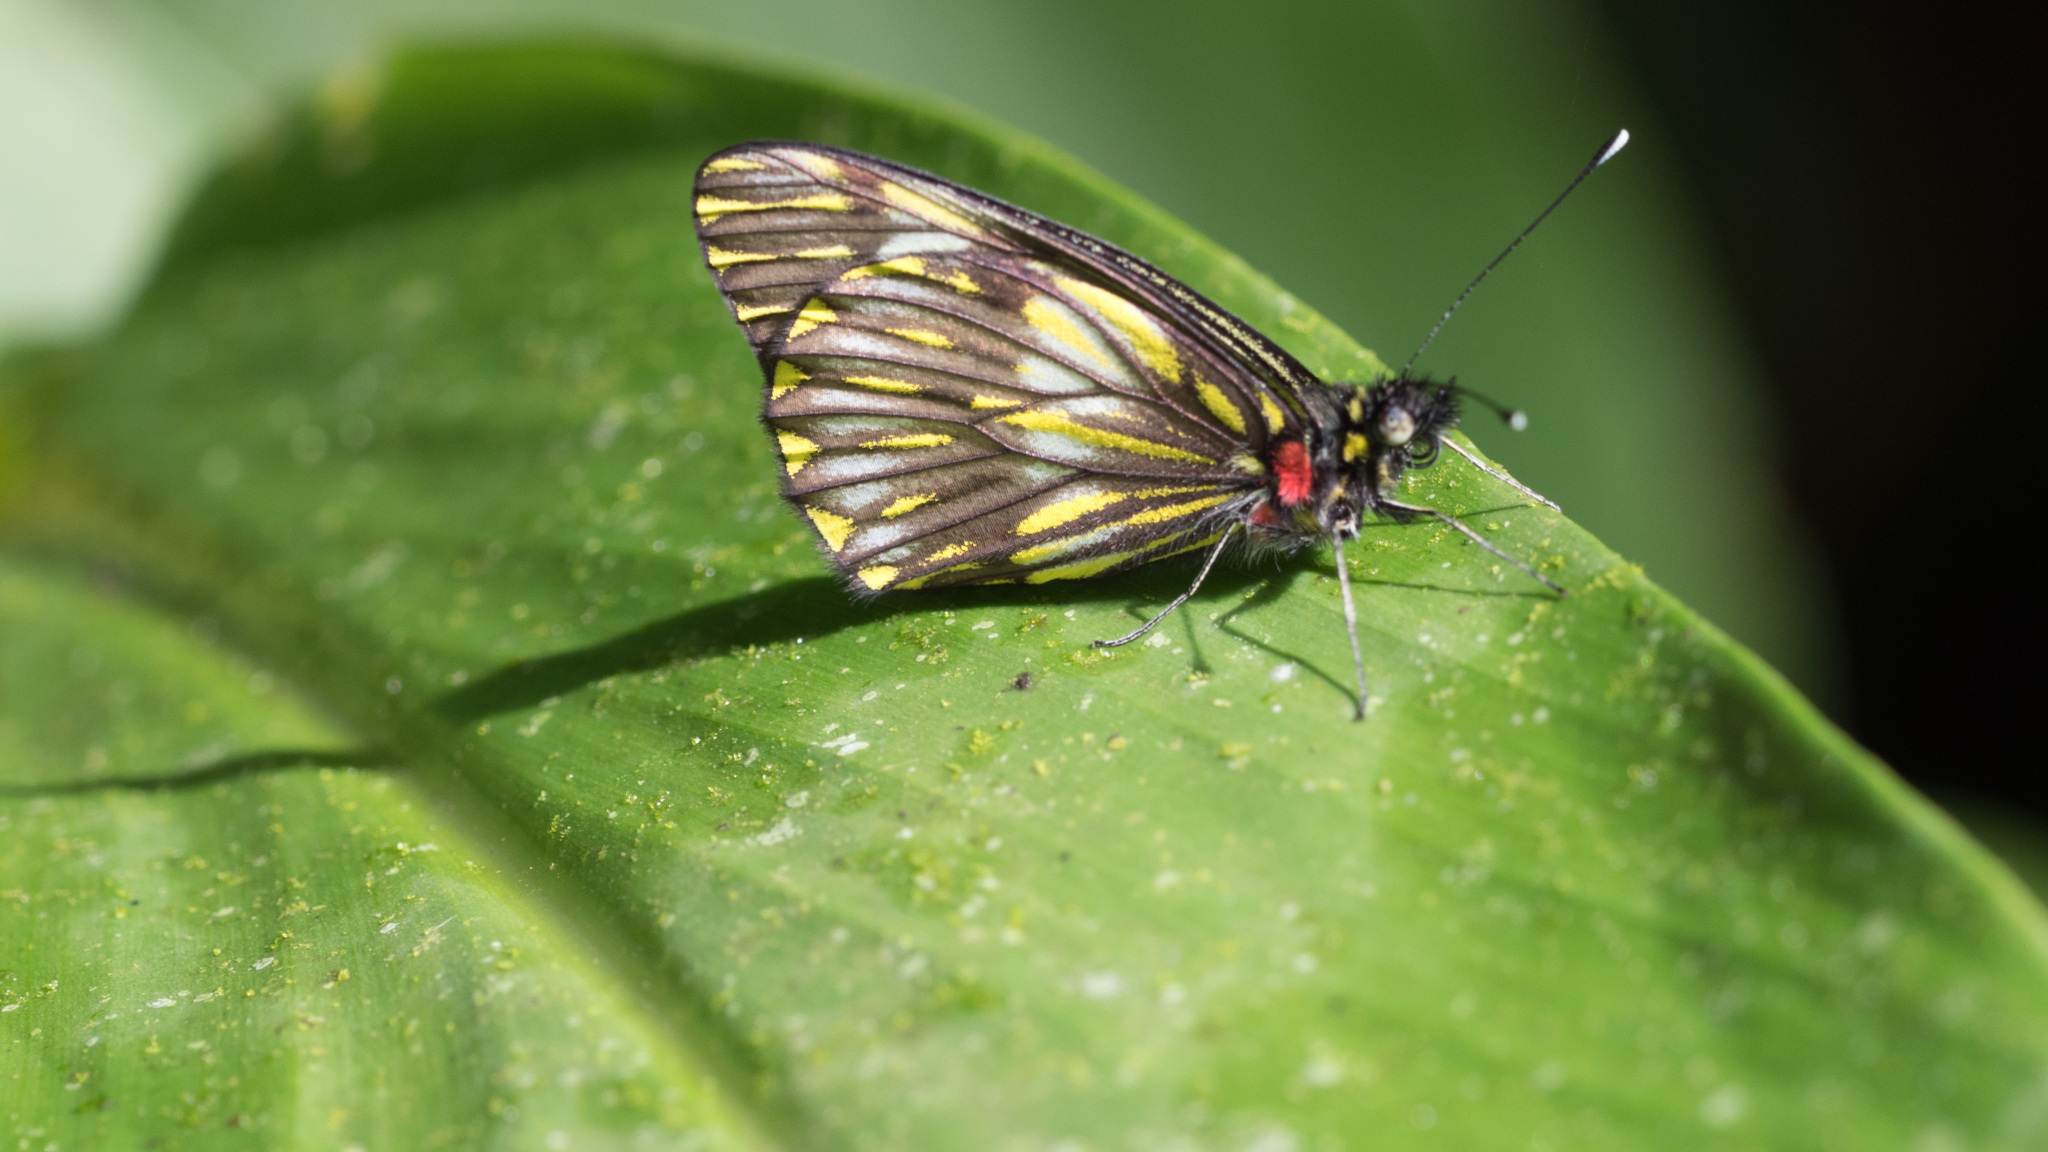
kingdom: Animalia
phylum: Arthropoda
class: Insecta
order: Lepidoptera
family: Pieridae
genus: Catasticta
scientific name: Catasticta notha
